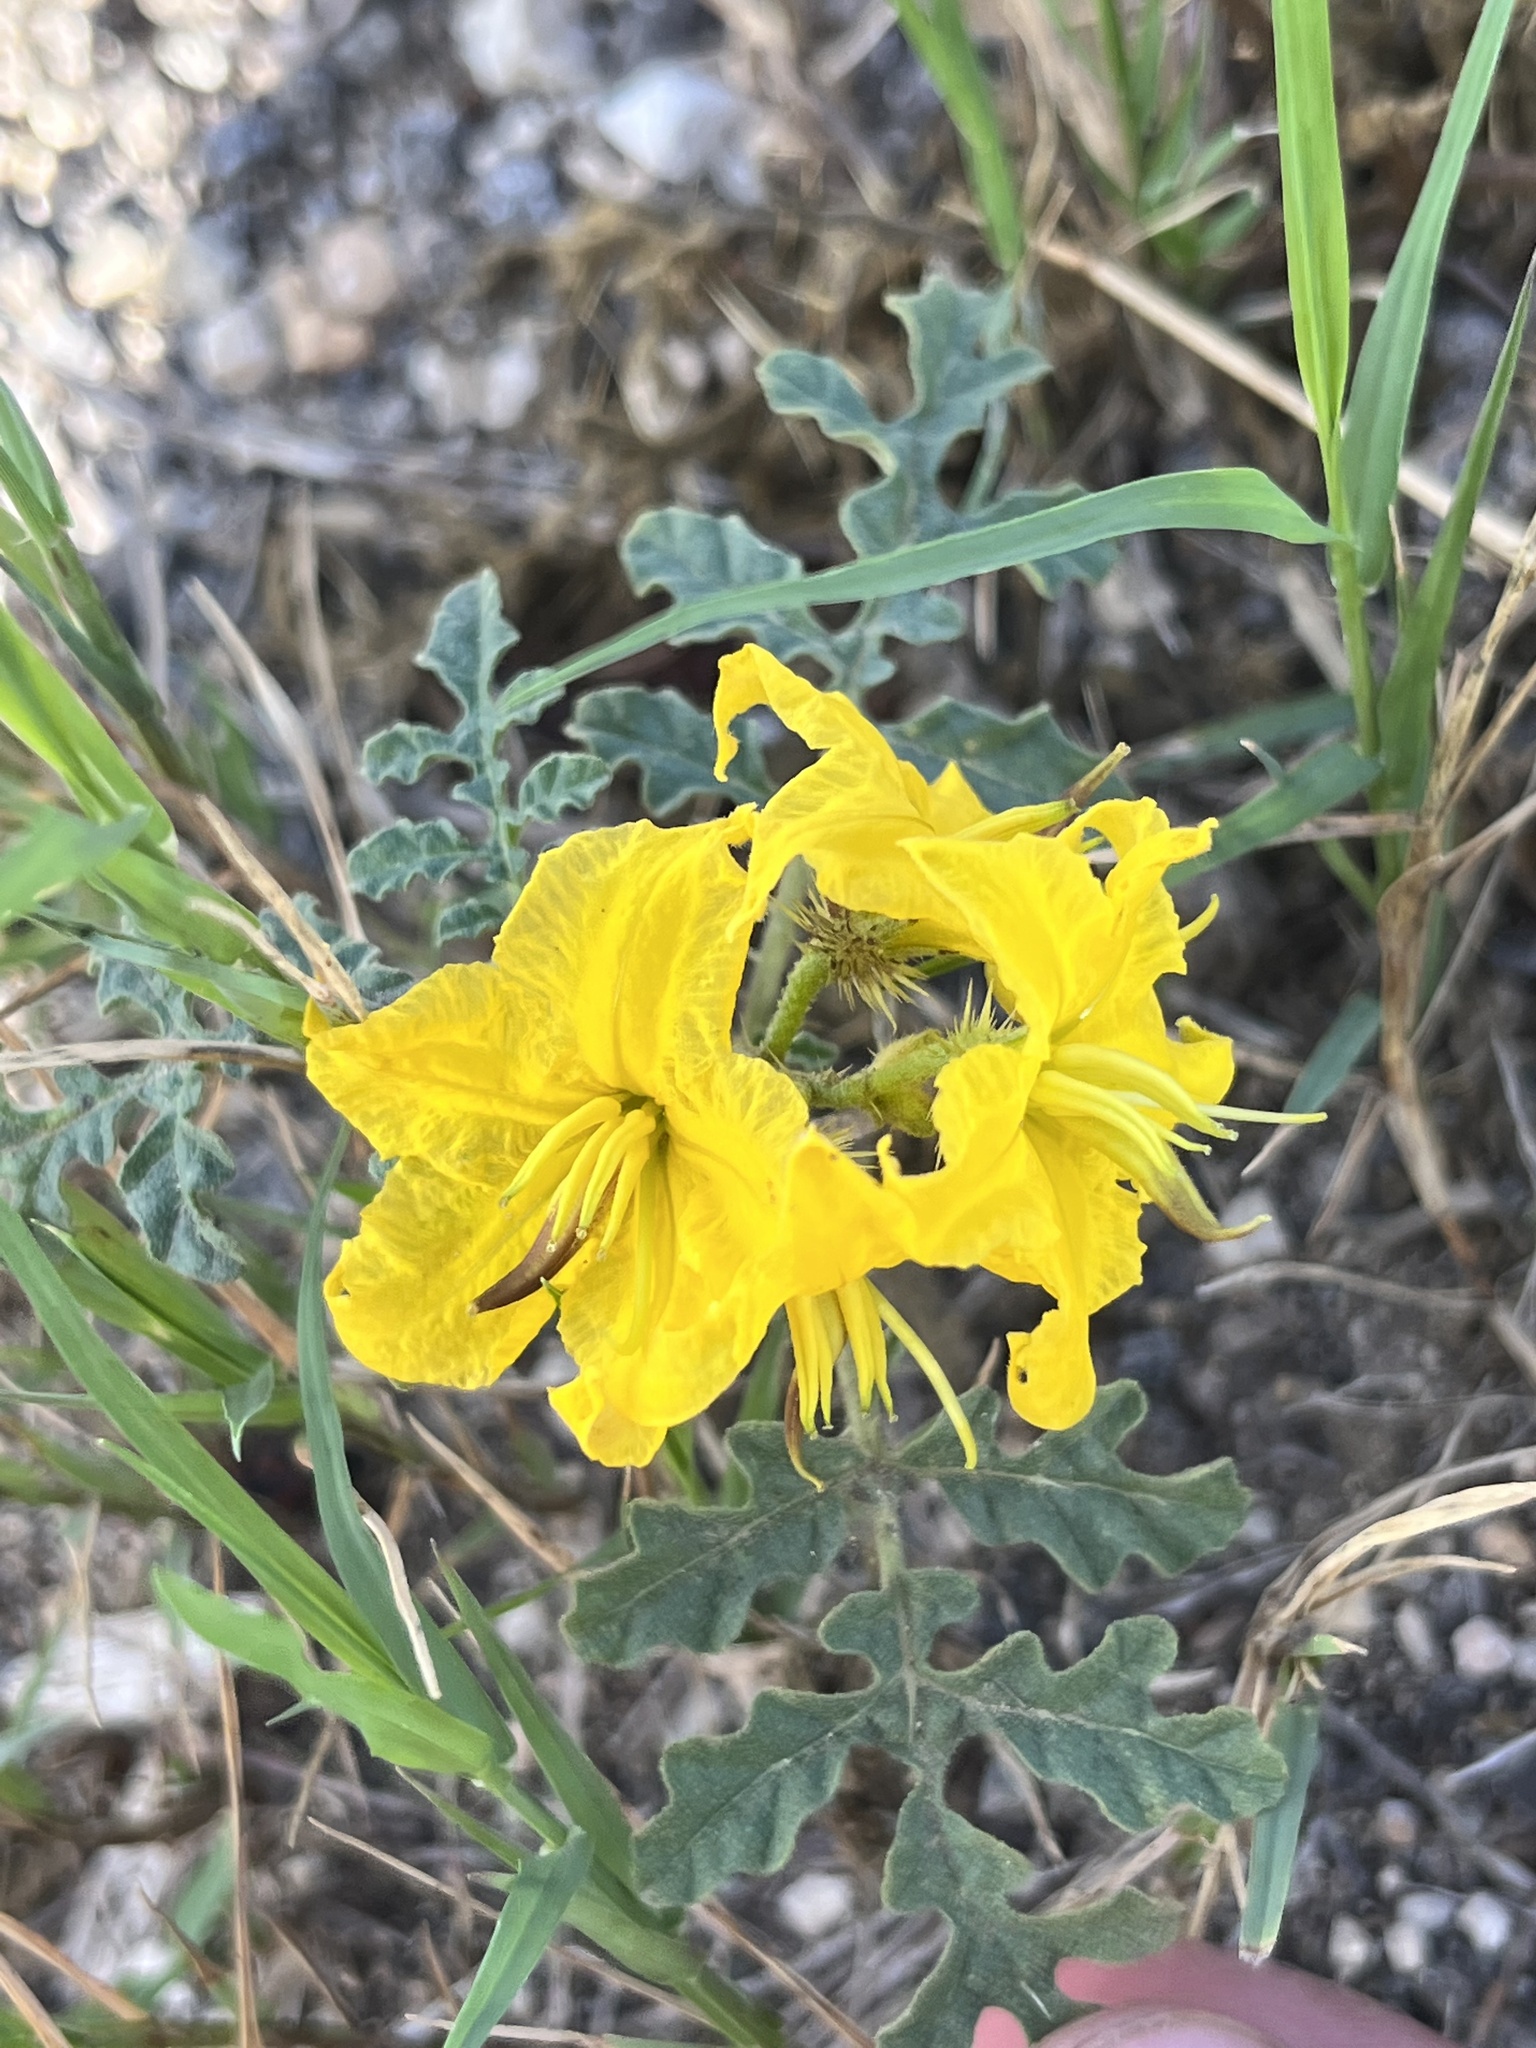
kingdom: Plantae
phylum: Tracheophyta
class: Magnoliopsida
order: Solanales
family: Solanaceae
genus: Solanum
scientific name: Solanum angustifolium
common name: Buffalobur nightshade
